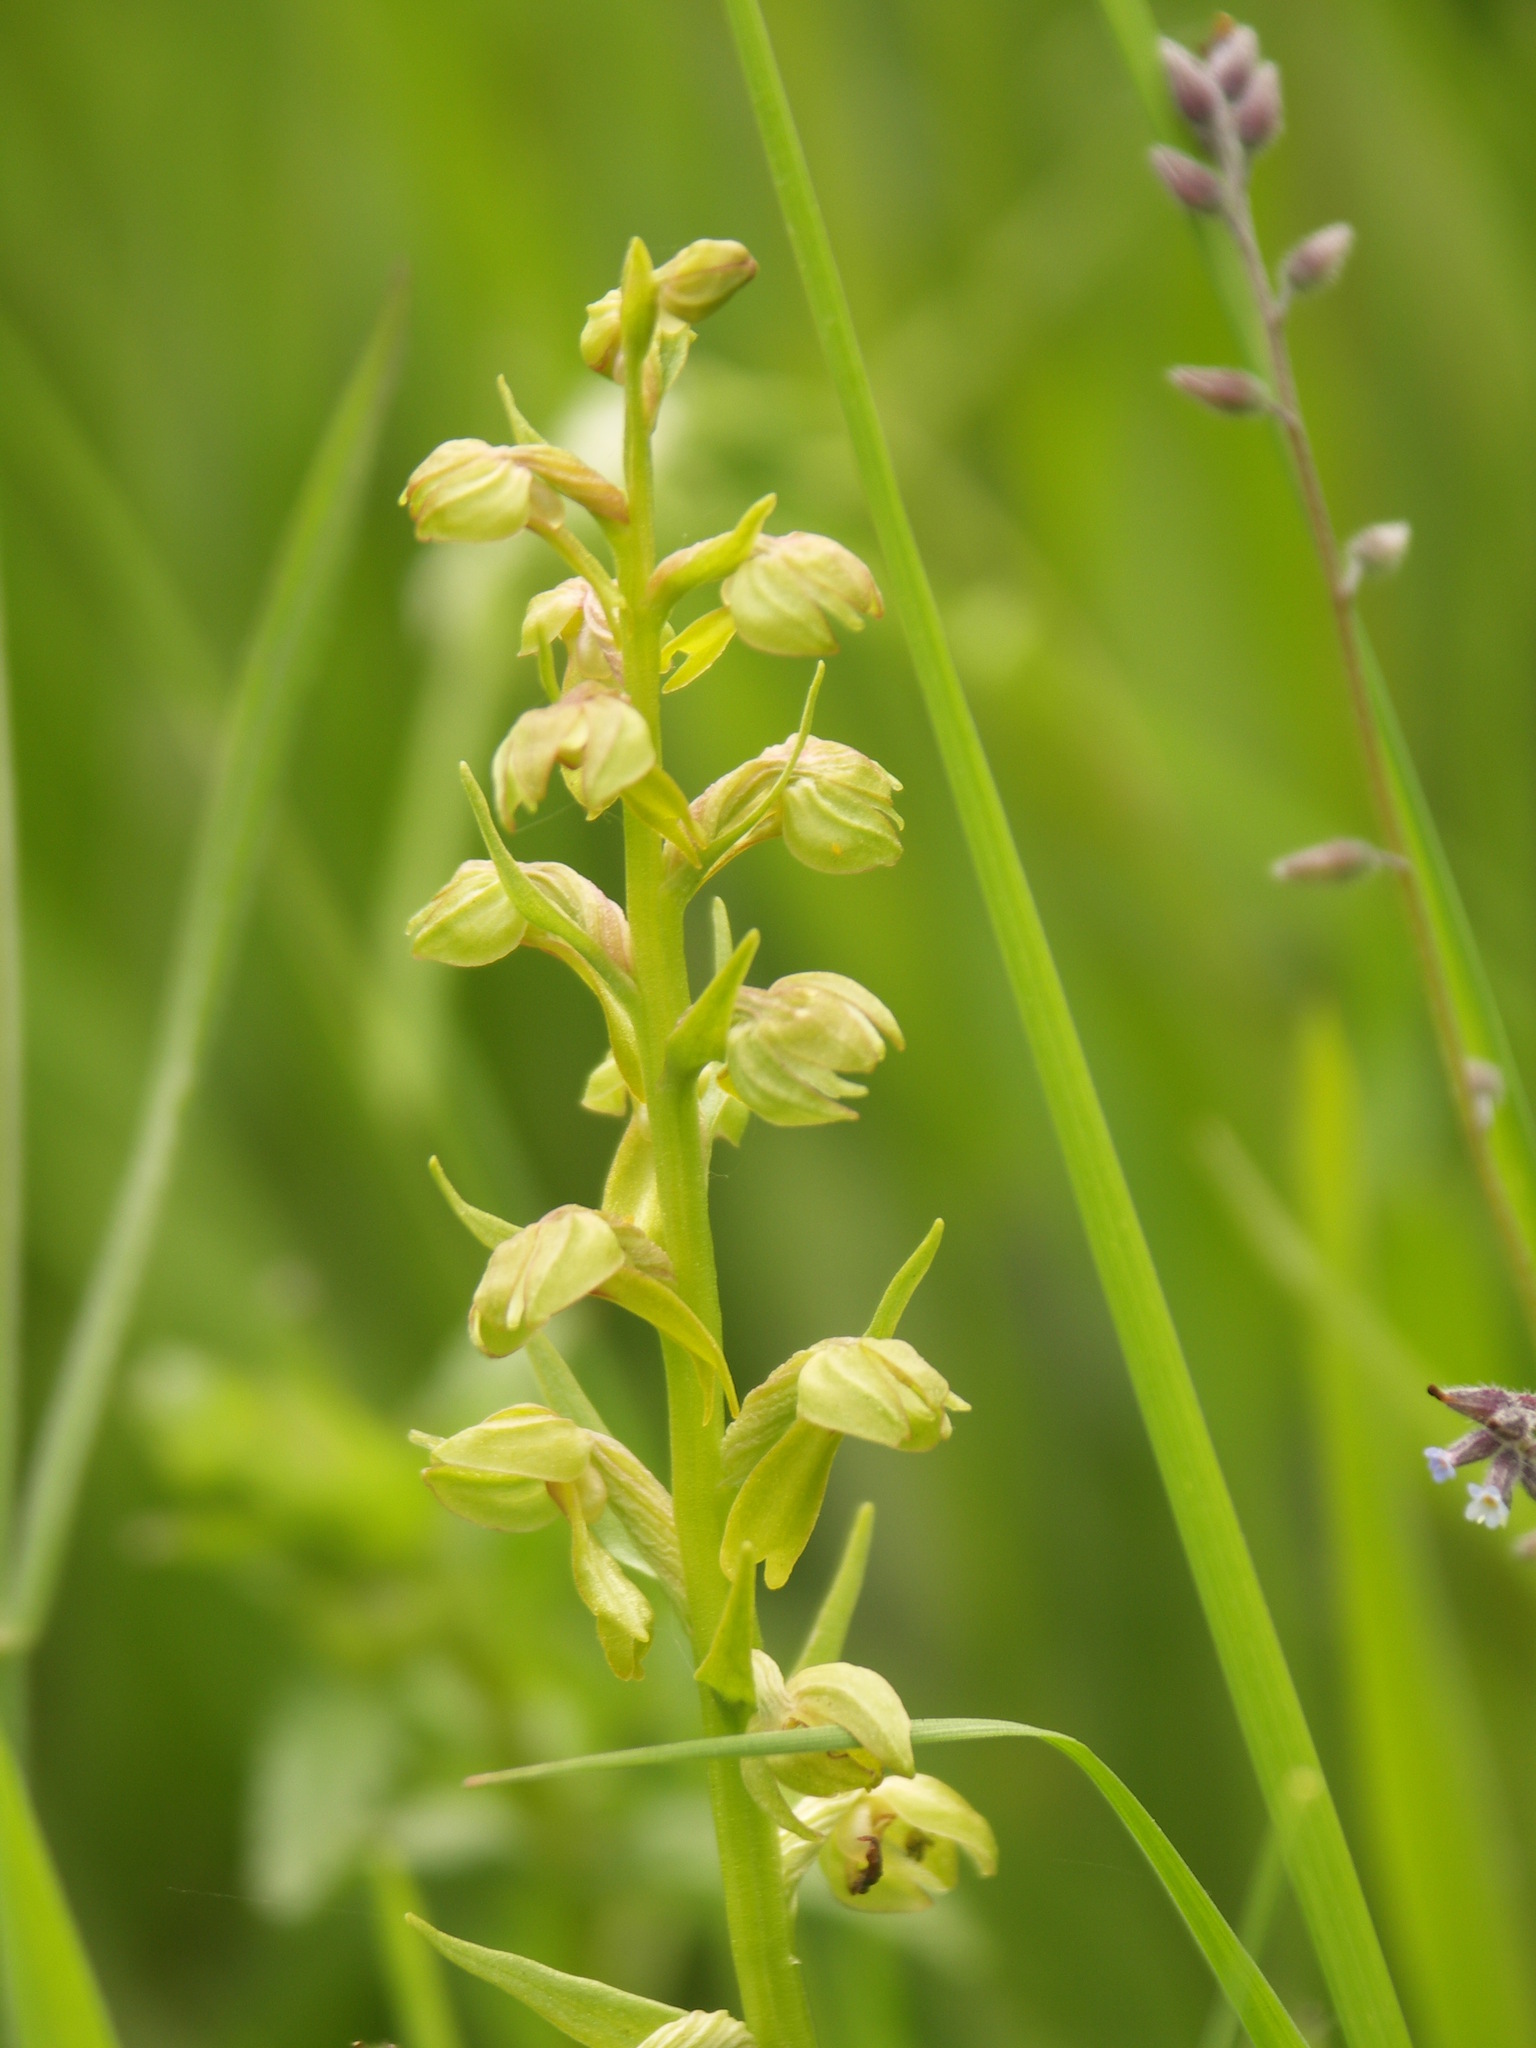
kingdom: Plantae
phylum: Tracheophyta
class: Liliopsida
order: Asparagales
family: Orchidaceae
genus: Dactylorhiza
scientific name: Dactylorhiza viridis
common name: Longbract frog orchid
